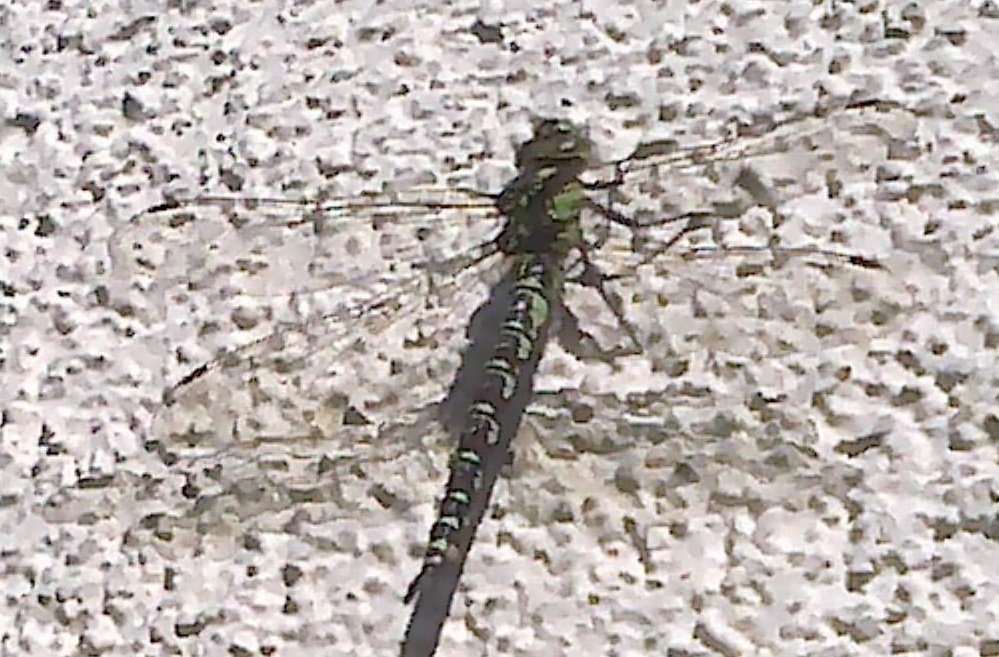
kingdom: Animalia
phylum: Arthropoda
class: Insecta
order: Odonata
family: Aeshnidae
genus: Aeshna
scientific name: Aeshna cyanea
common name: Southern hawker
